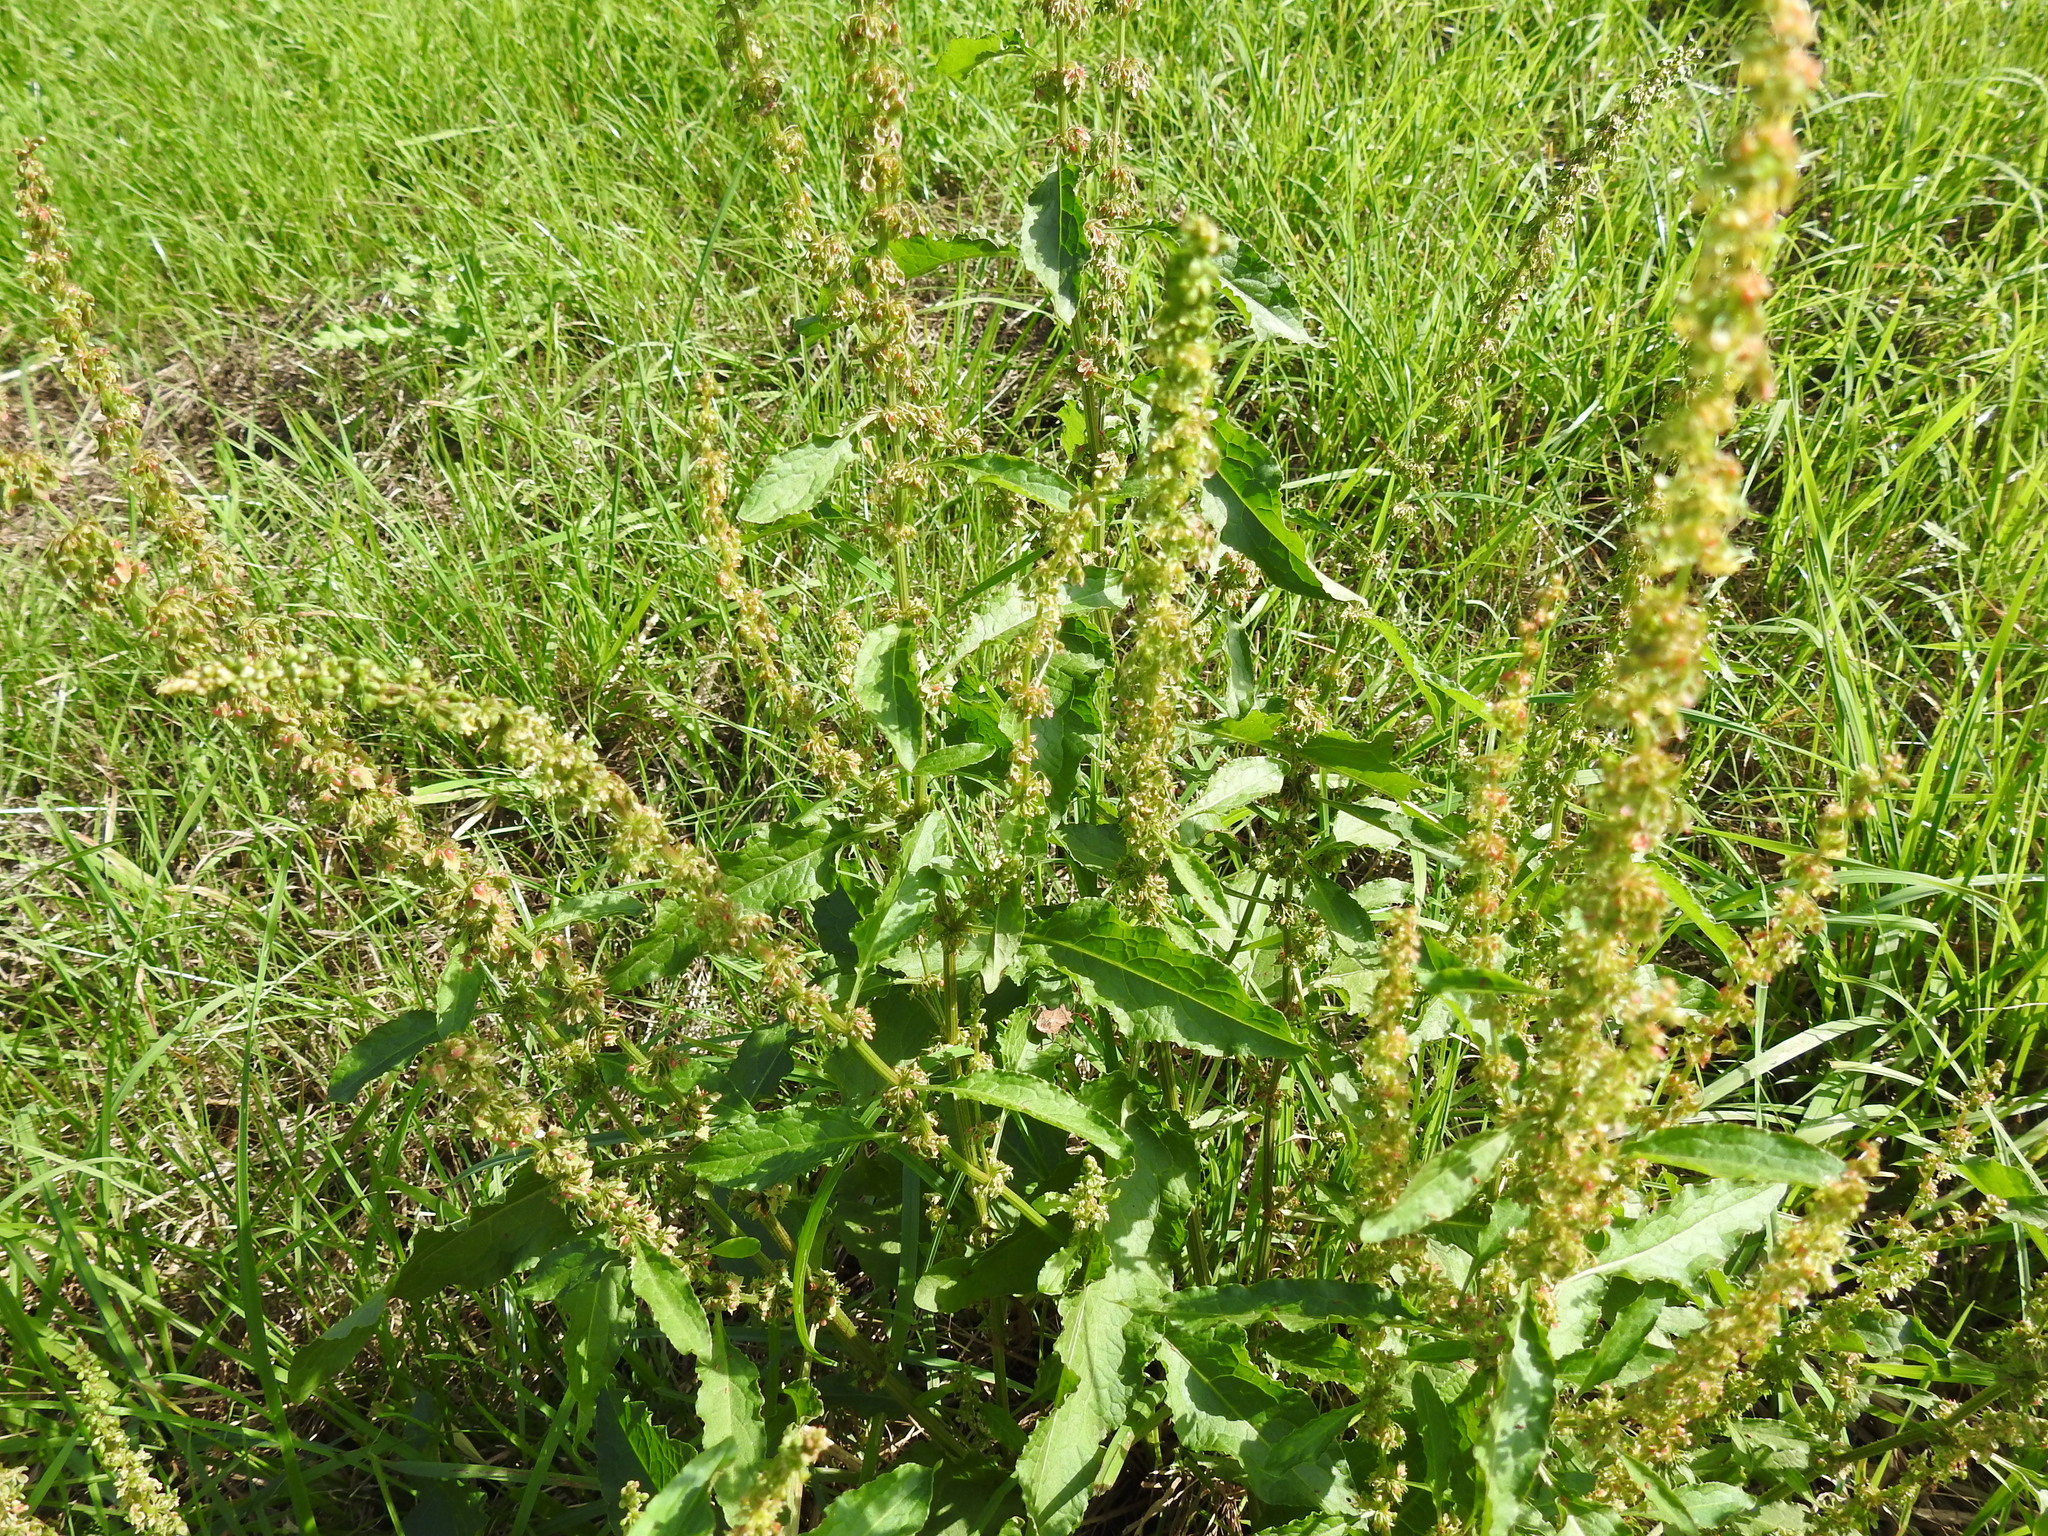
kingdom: Plantae
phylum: Tracheophyta
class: Magnoliopsida
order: Caryophyllales
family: Polygonaceae
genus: Rumex
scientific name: Rumex crispus
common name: Curled dock
